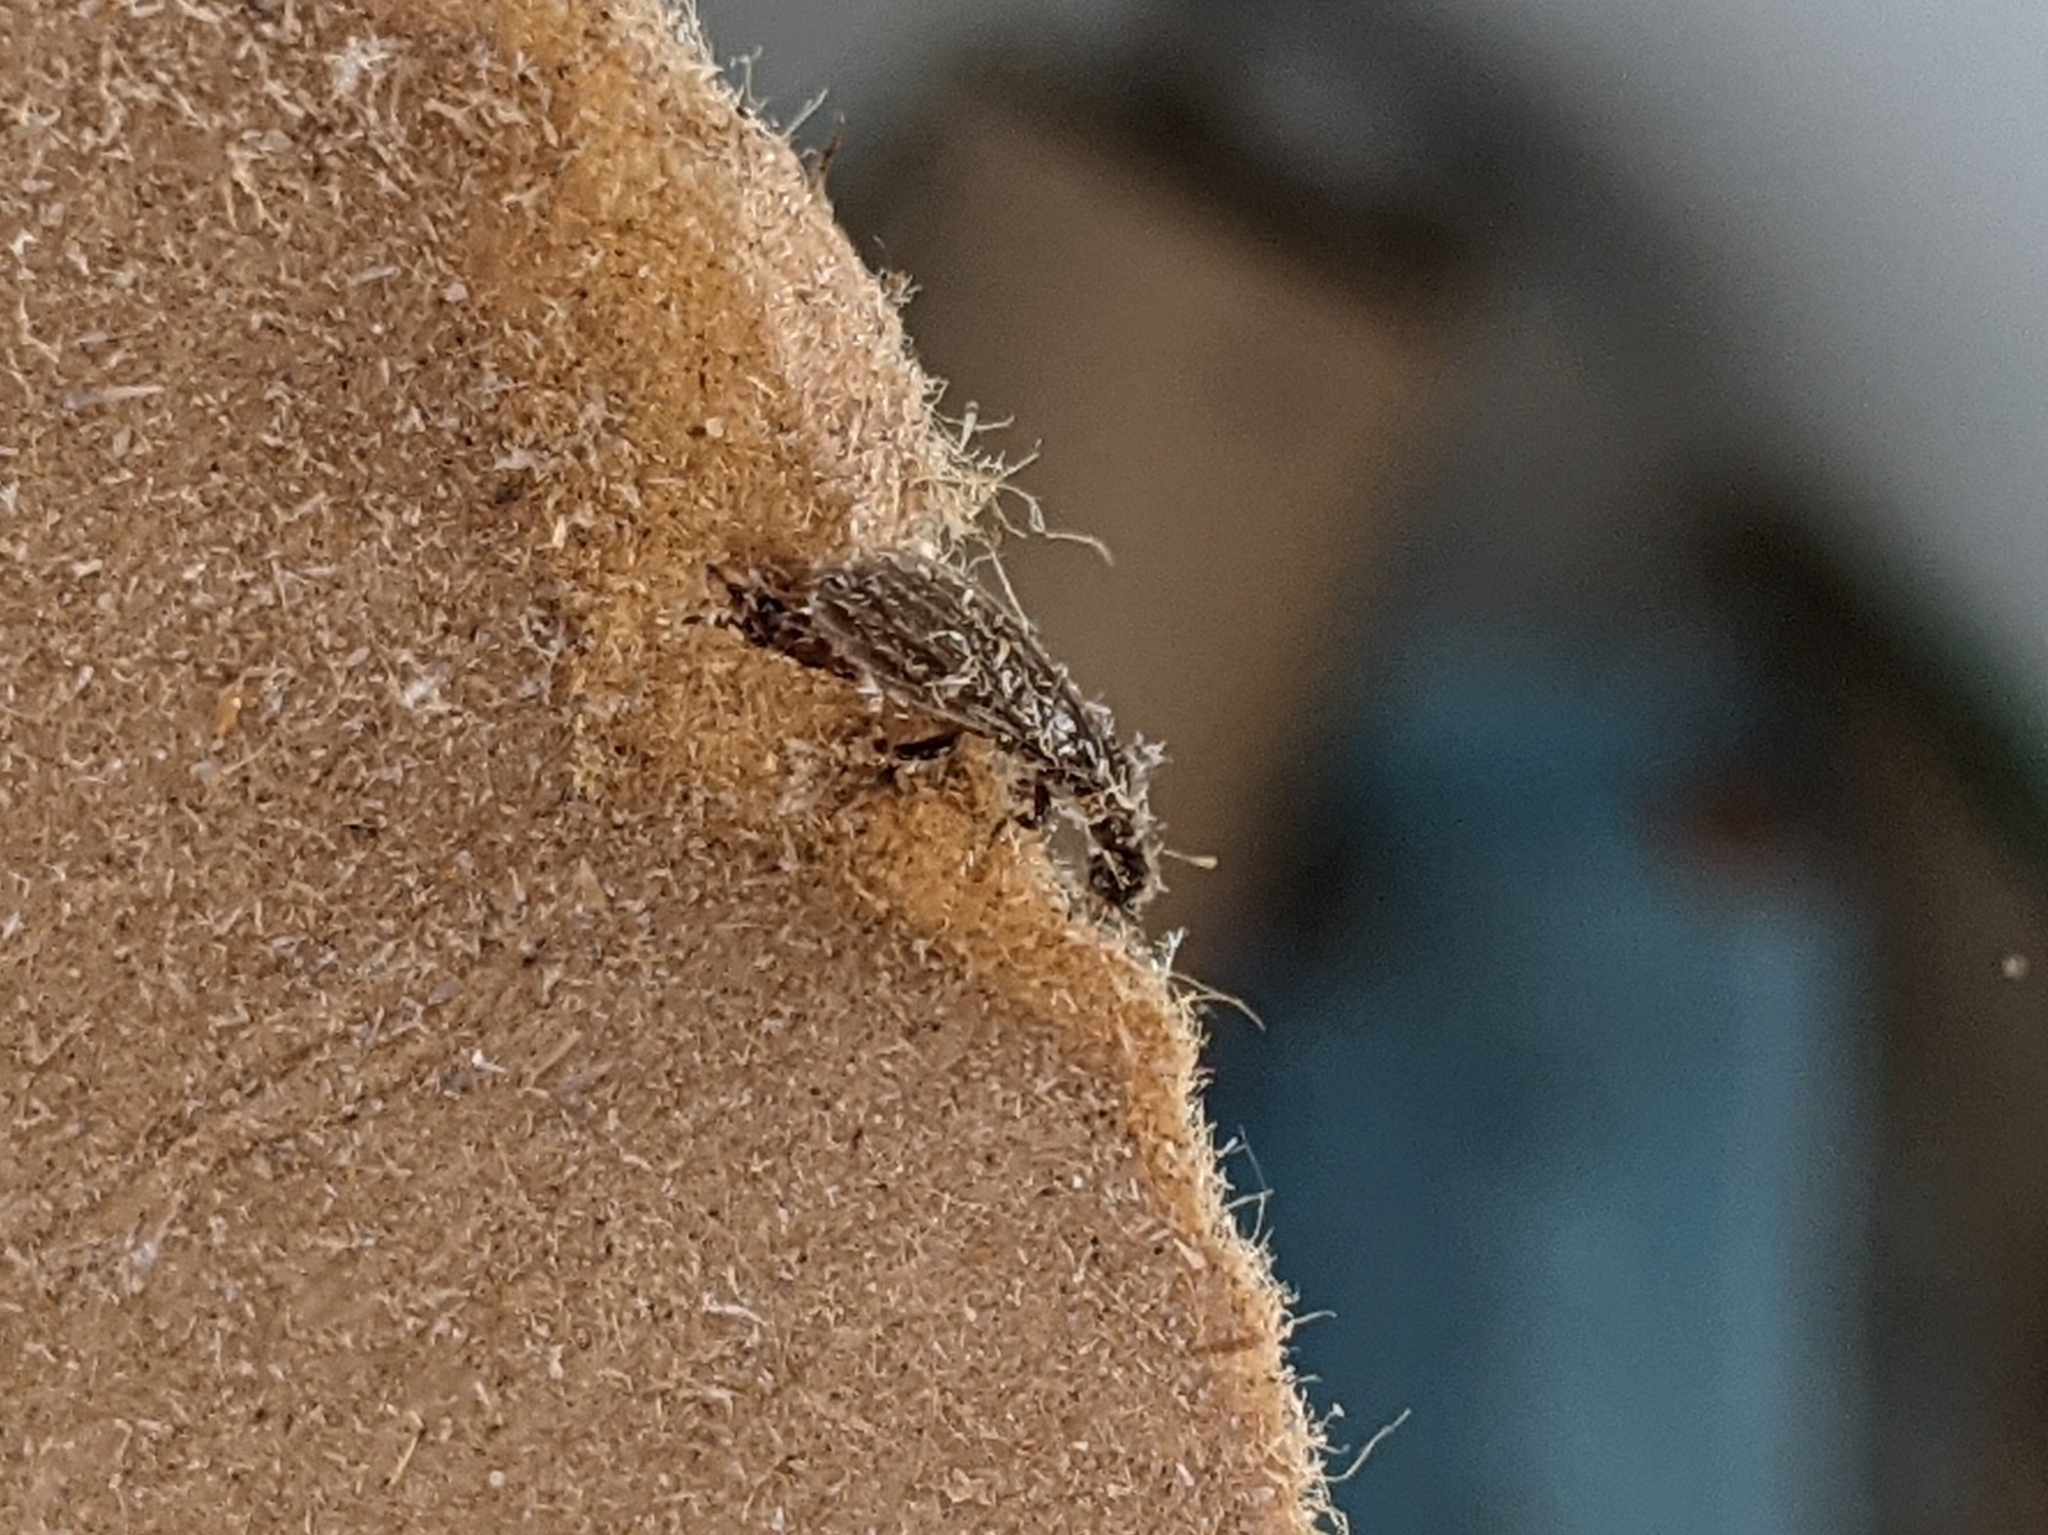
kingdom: Animalia
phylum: Arthropoda
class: Insecta
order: Embioptera
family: Oligotomidae
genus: Oligotoma
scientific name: Oligotoma nigra
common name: Black webspinner
